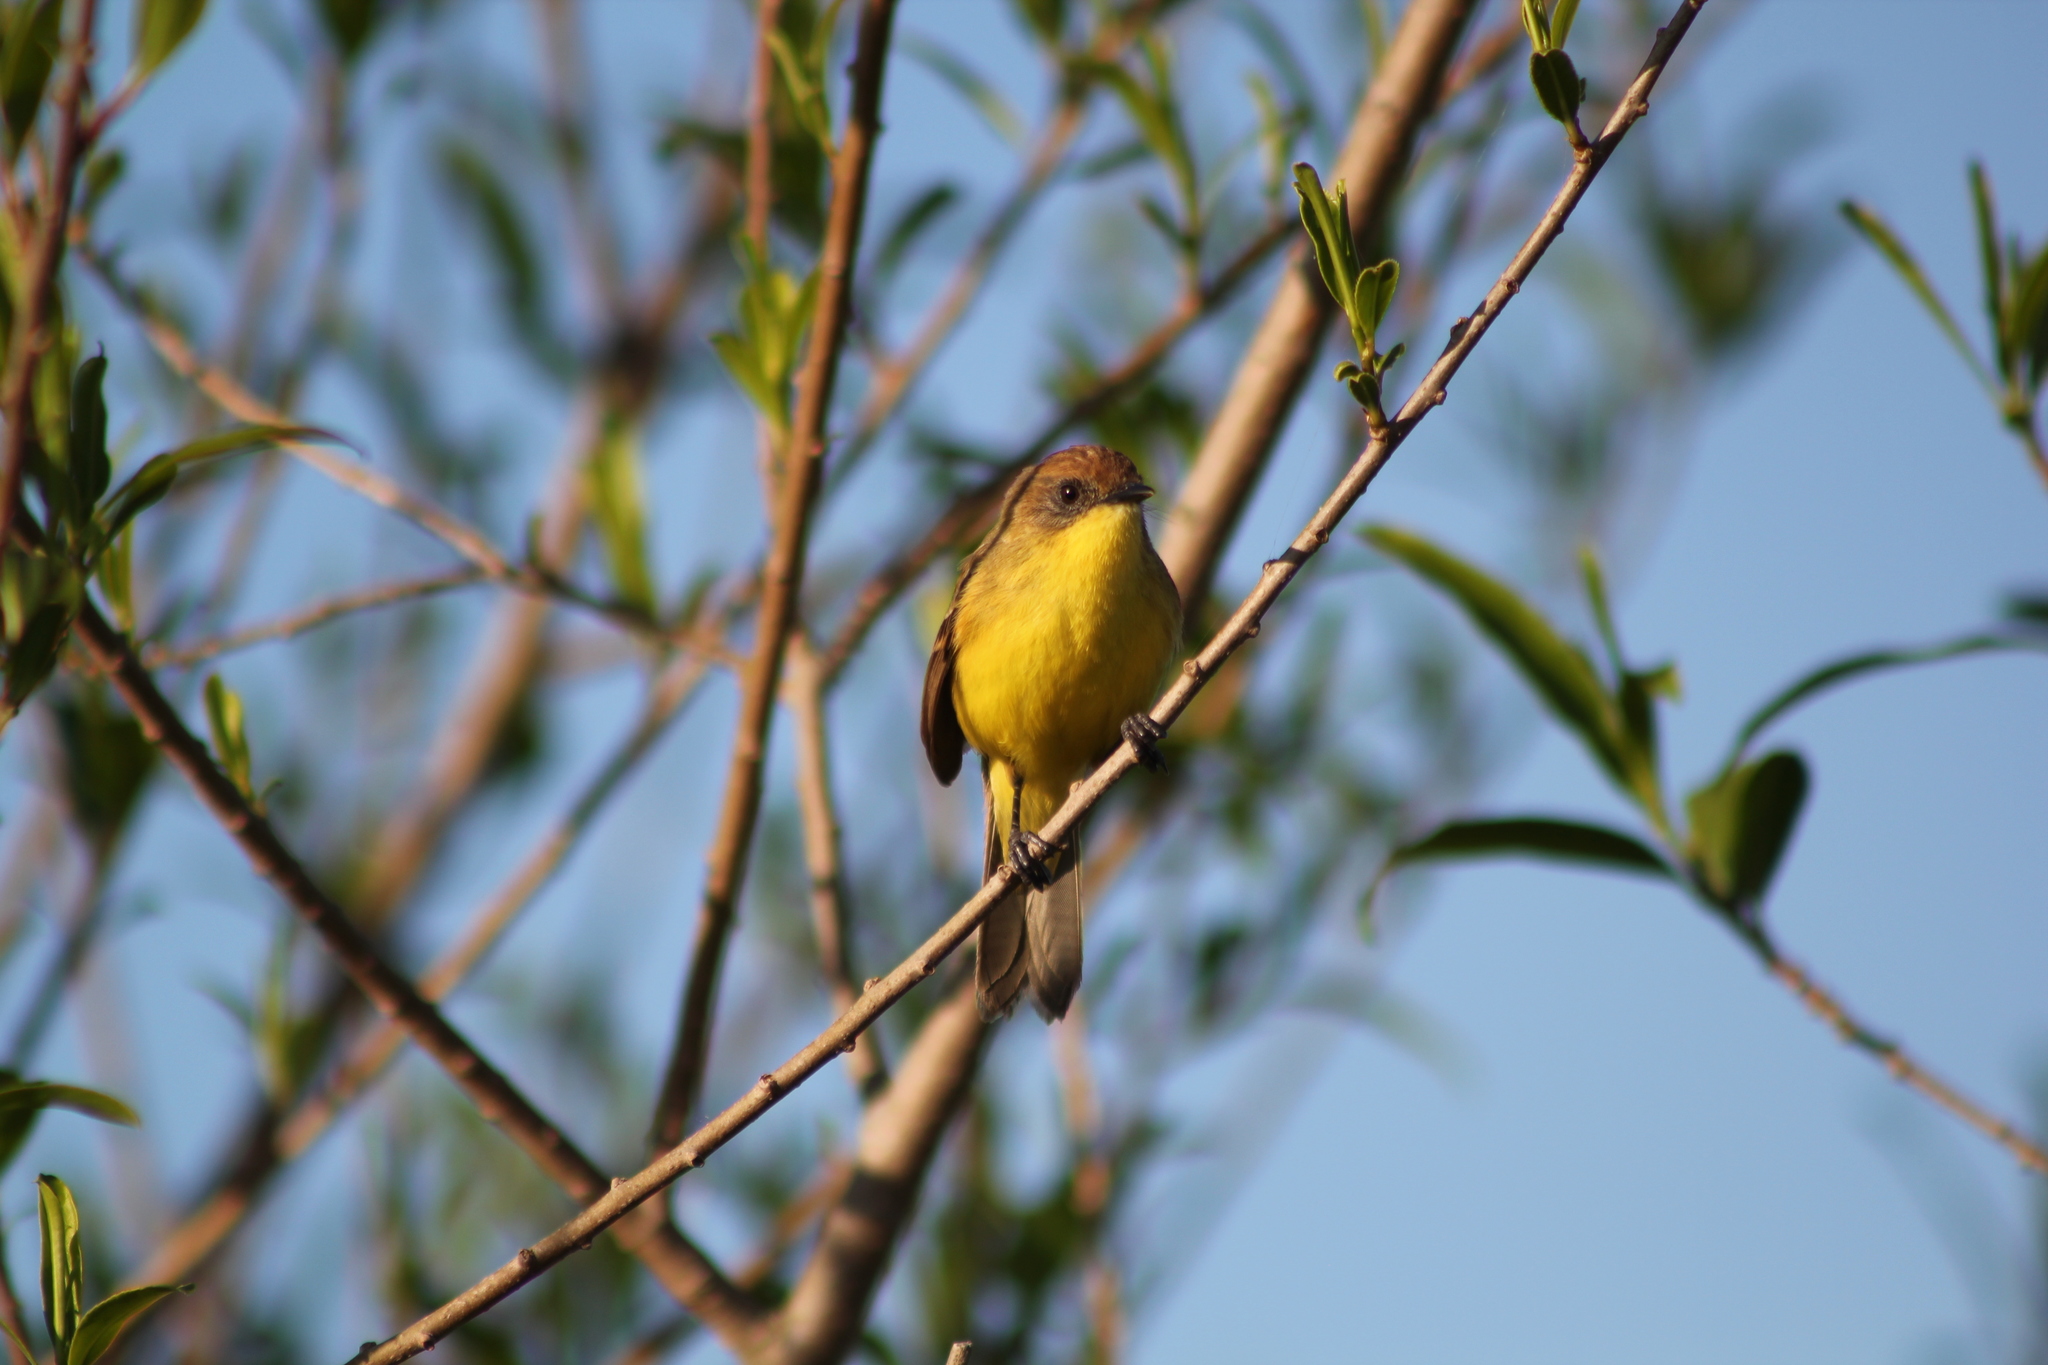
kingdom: Animalia
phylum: Chordata
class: Aves
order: Passeriformes
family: Tyrannidae
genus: Pseudocolopteryx
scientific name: Pseudocolopteryx flaviventris
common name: Warbling doradito
